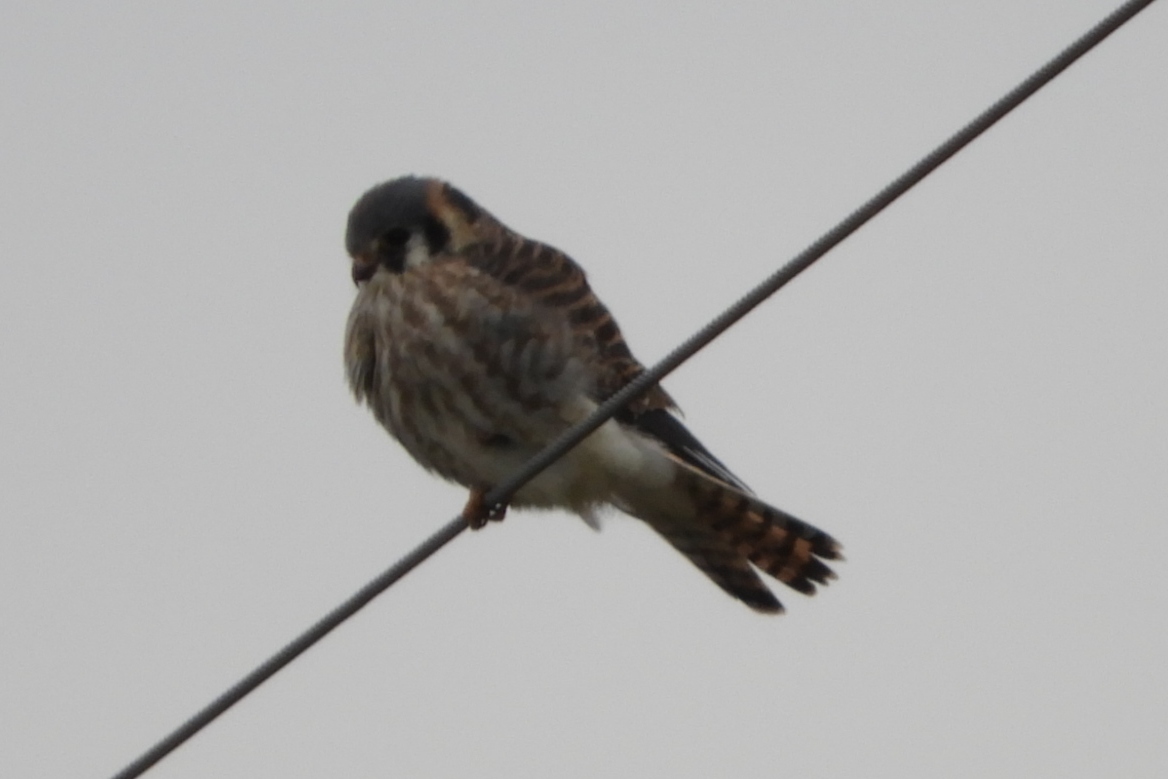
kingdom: Animalia
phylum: Chordata
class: Aves
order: Falconiformes
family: Falconidae
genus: Falco
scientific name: Falco sparverius
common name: American kestrel
